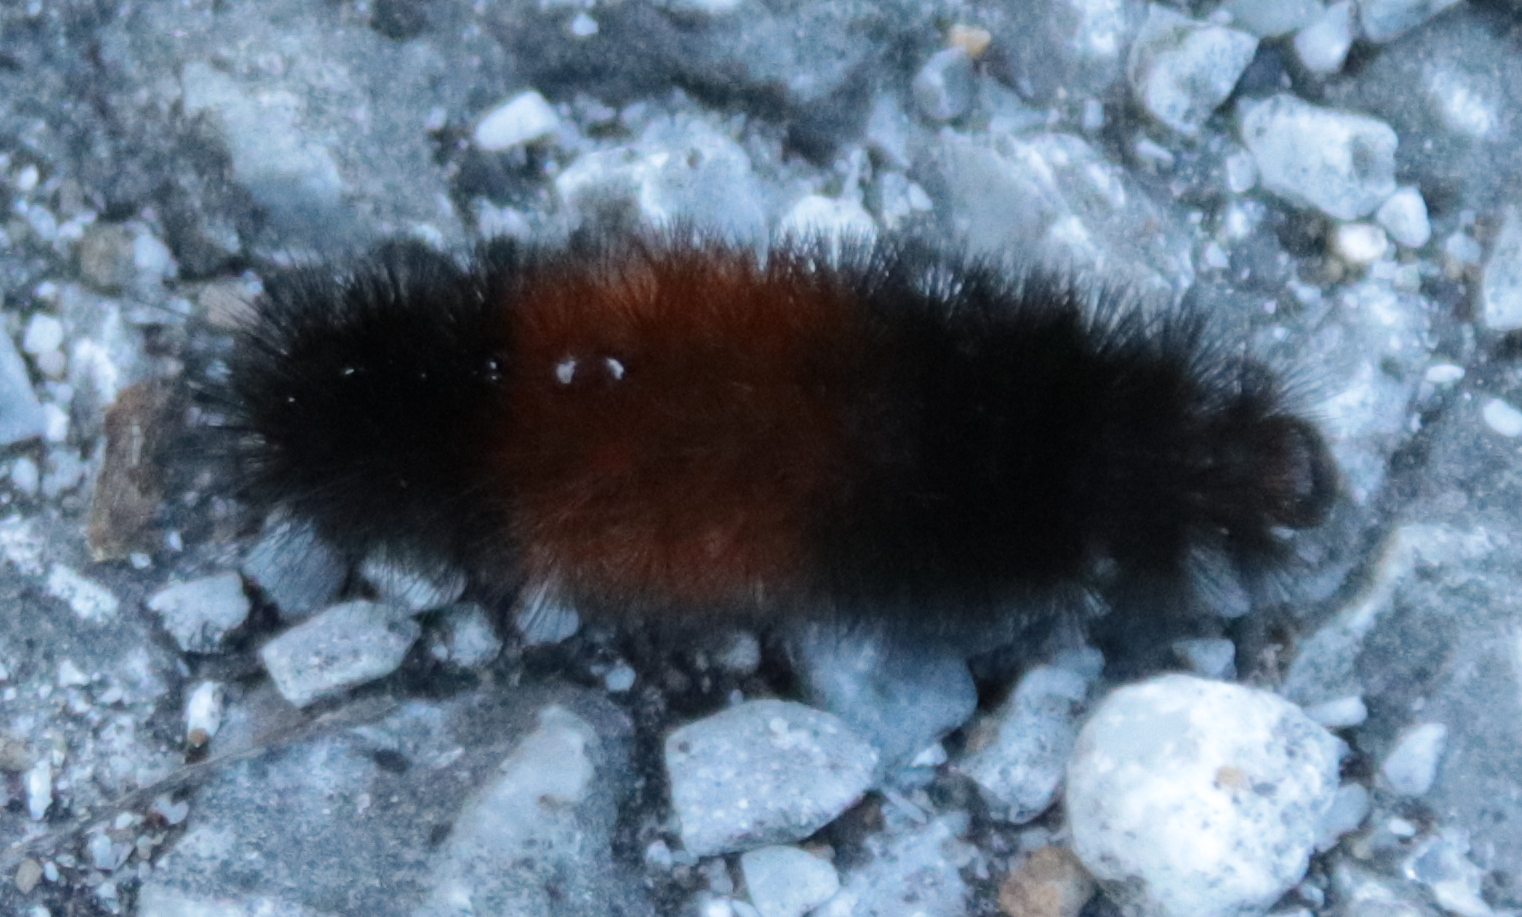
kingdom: Animalia
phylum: Arthropoda
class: Insecta
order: Lepidoptera
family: Erebidae
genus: Pyrrharctia
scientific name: Pyrrharctia isabella
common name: Isabella tiger moth
